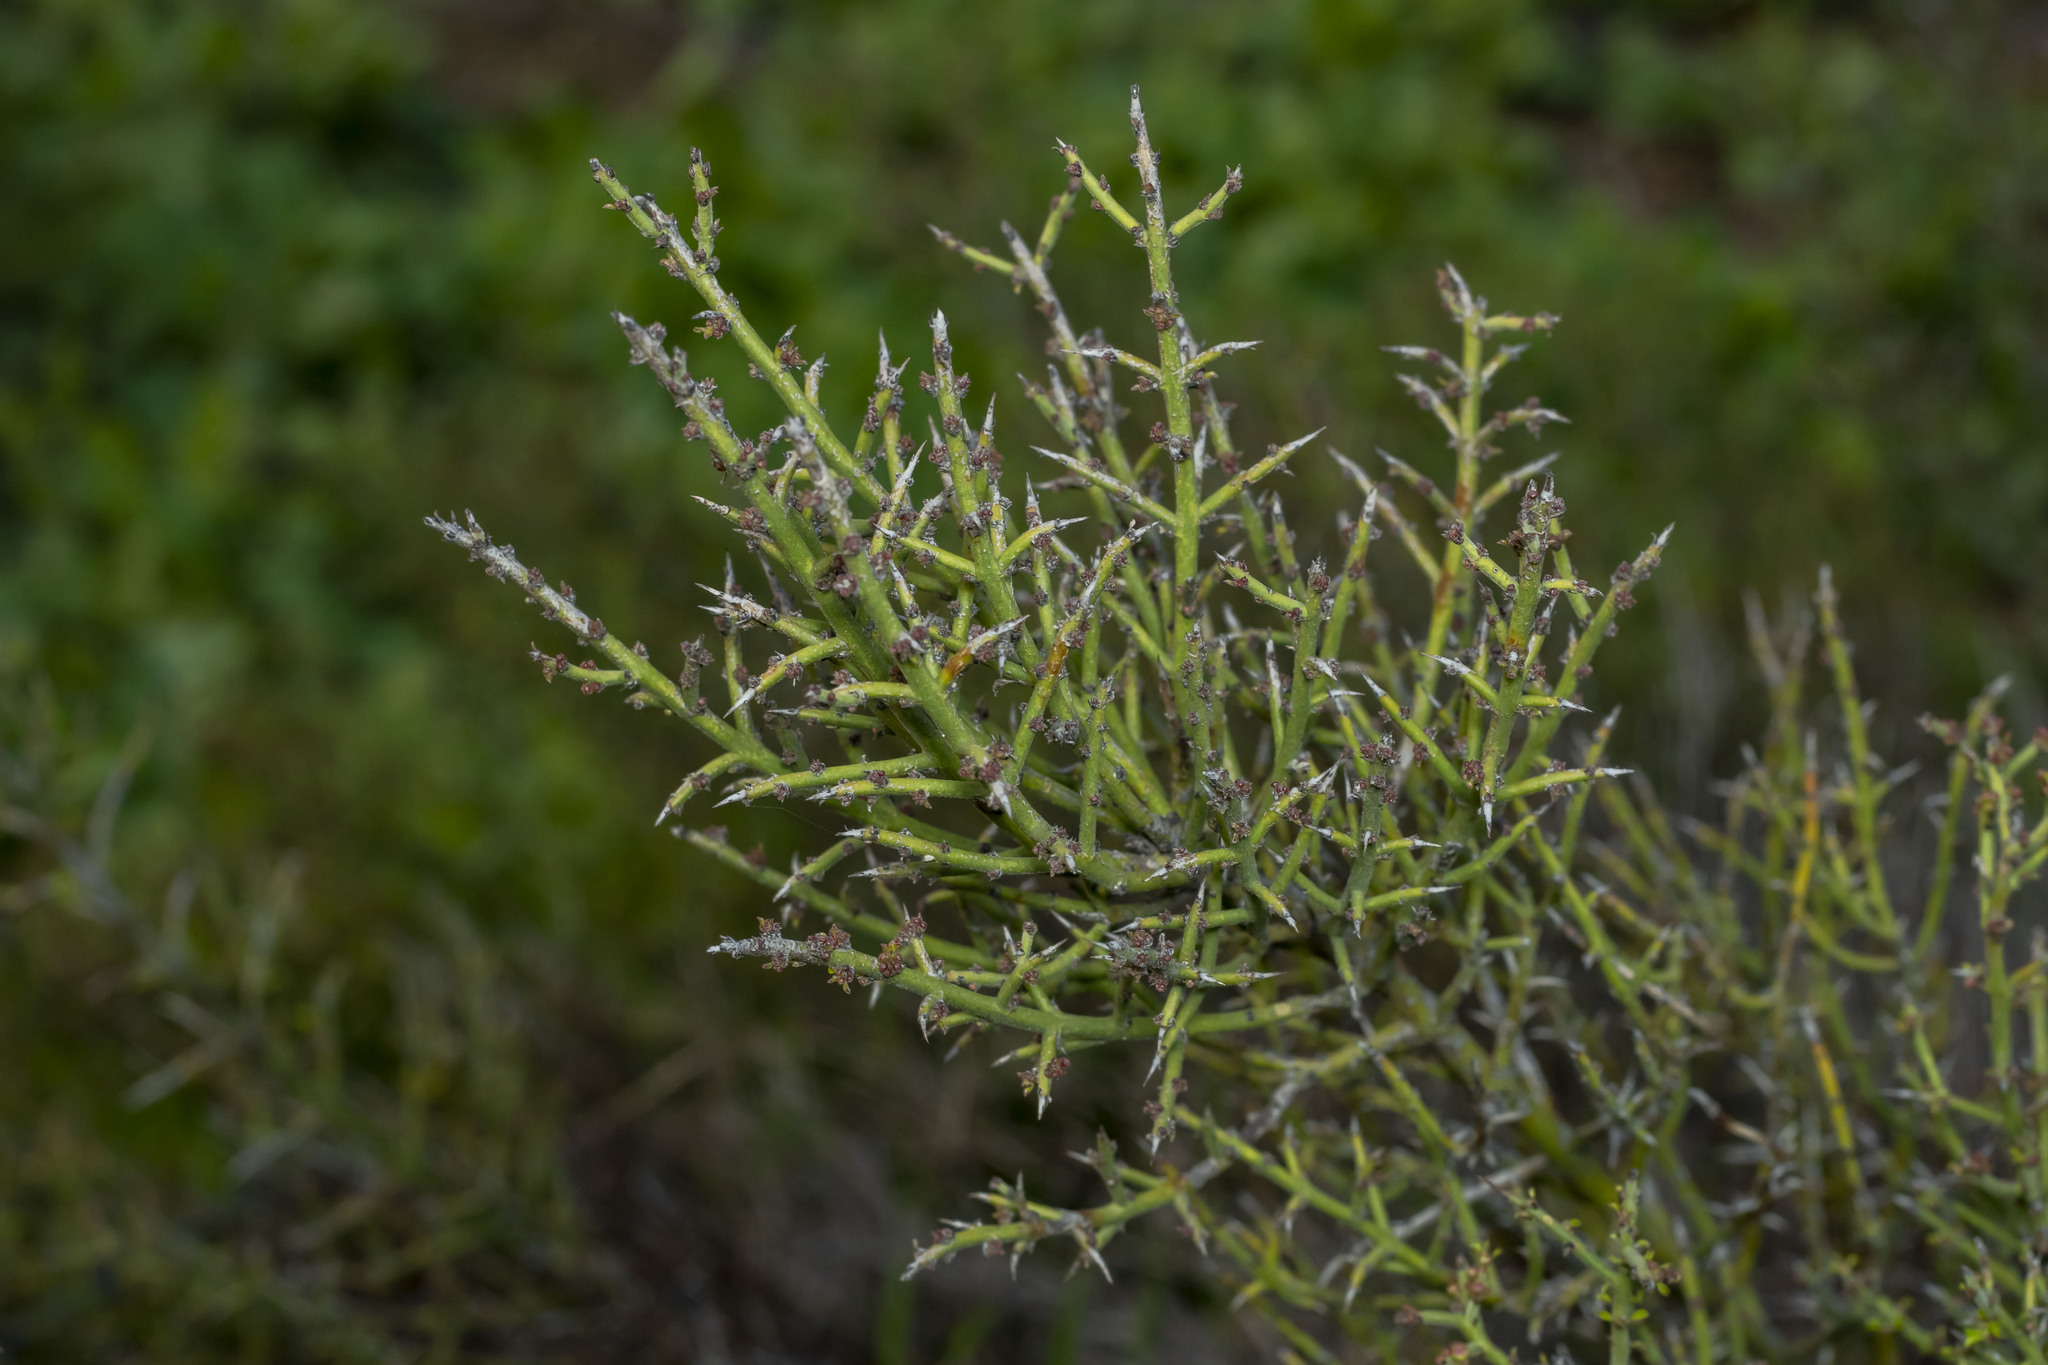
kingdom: Plantae
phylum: Tracheophyta
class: Magnoliopsida
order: Rosales
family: Rhamnaceae
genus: Adolphia
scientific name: Adolphia californica
